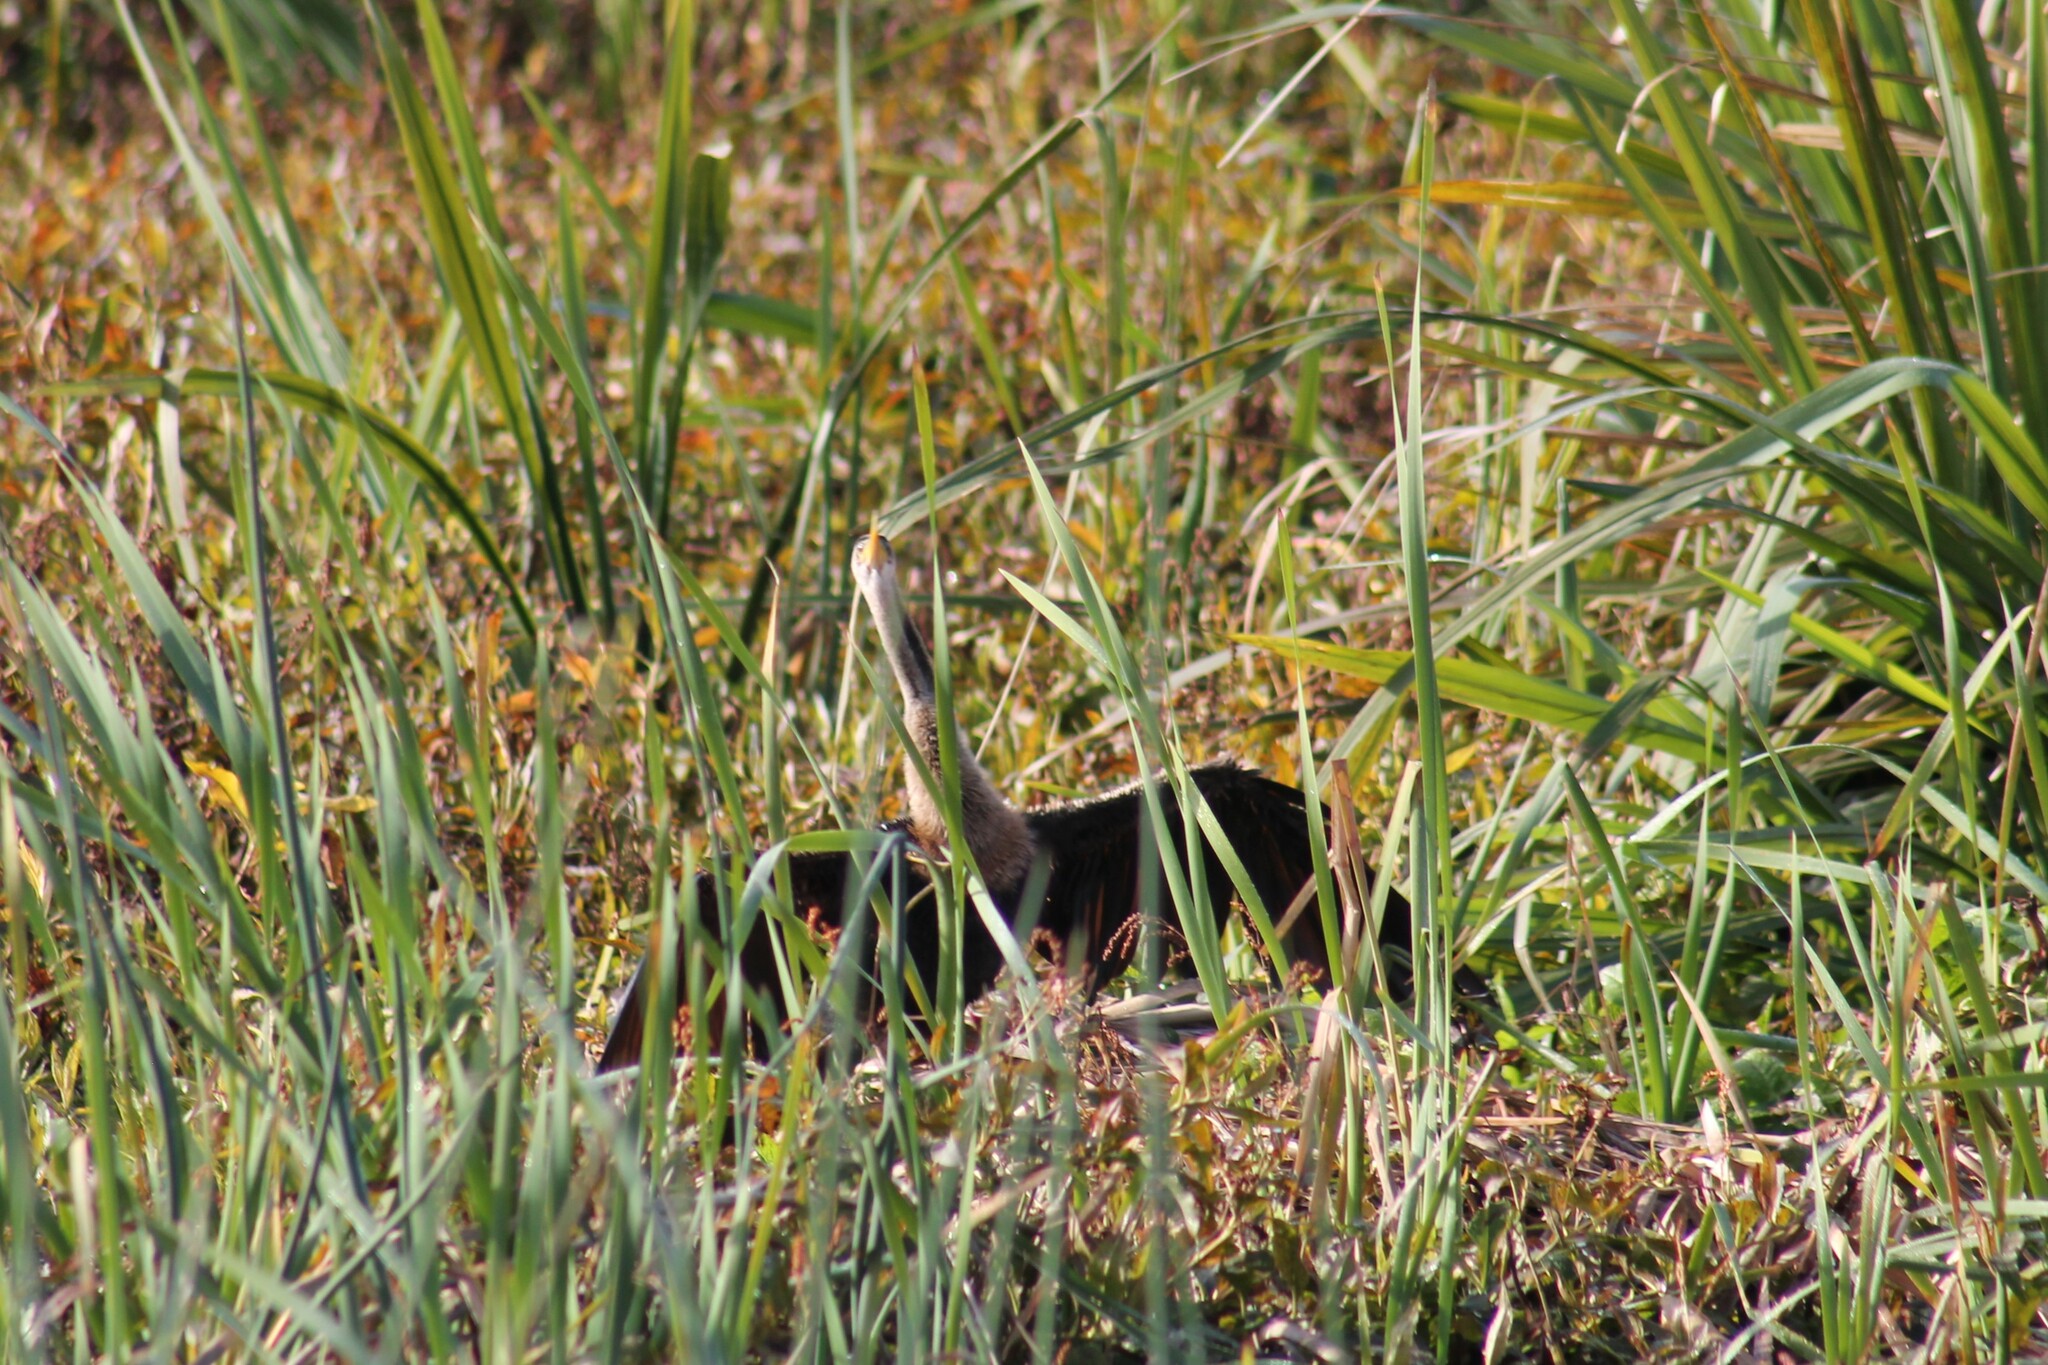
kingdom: Animalia
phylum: Chordata
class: Aves
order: Suliformes
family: Anhingidae
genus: Anhinga
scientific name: Anhinga anhinga
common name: Anhinga
